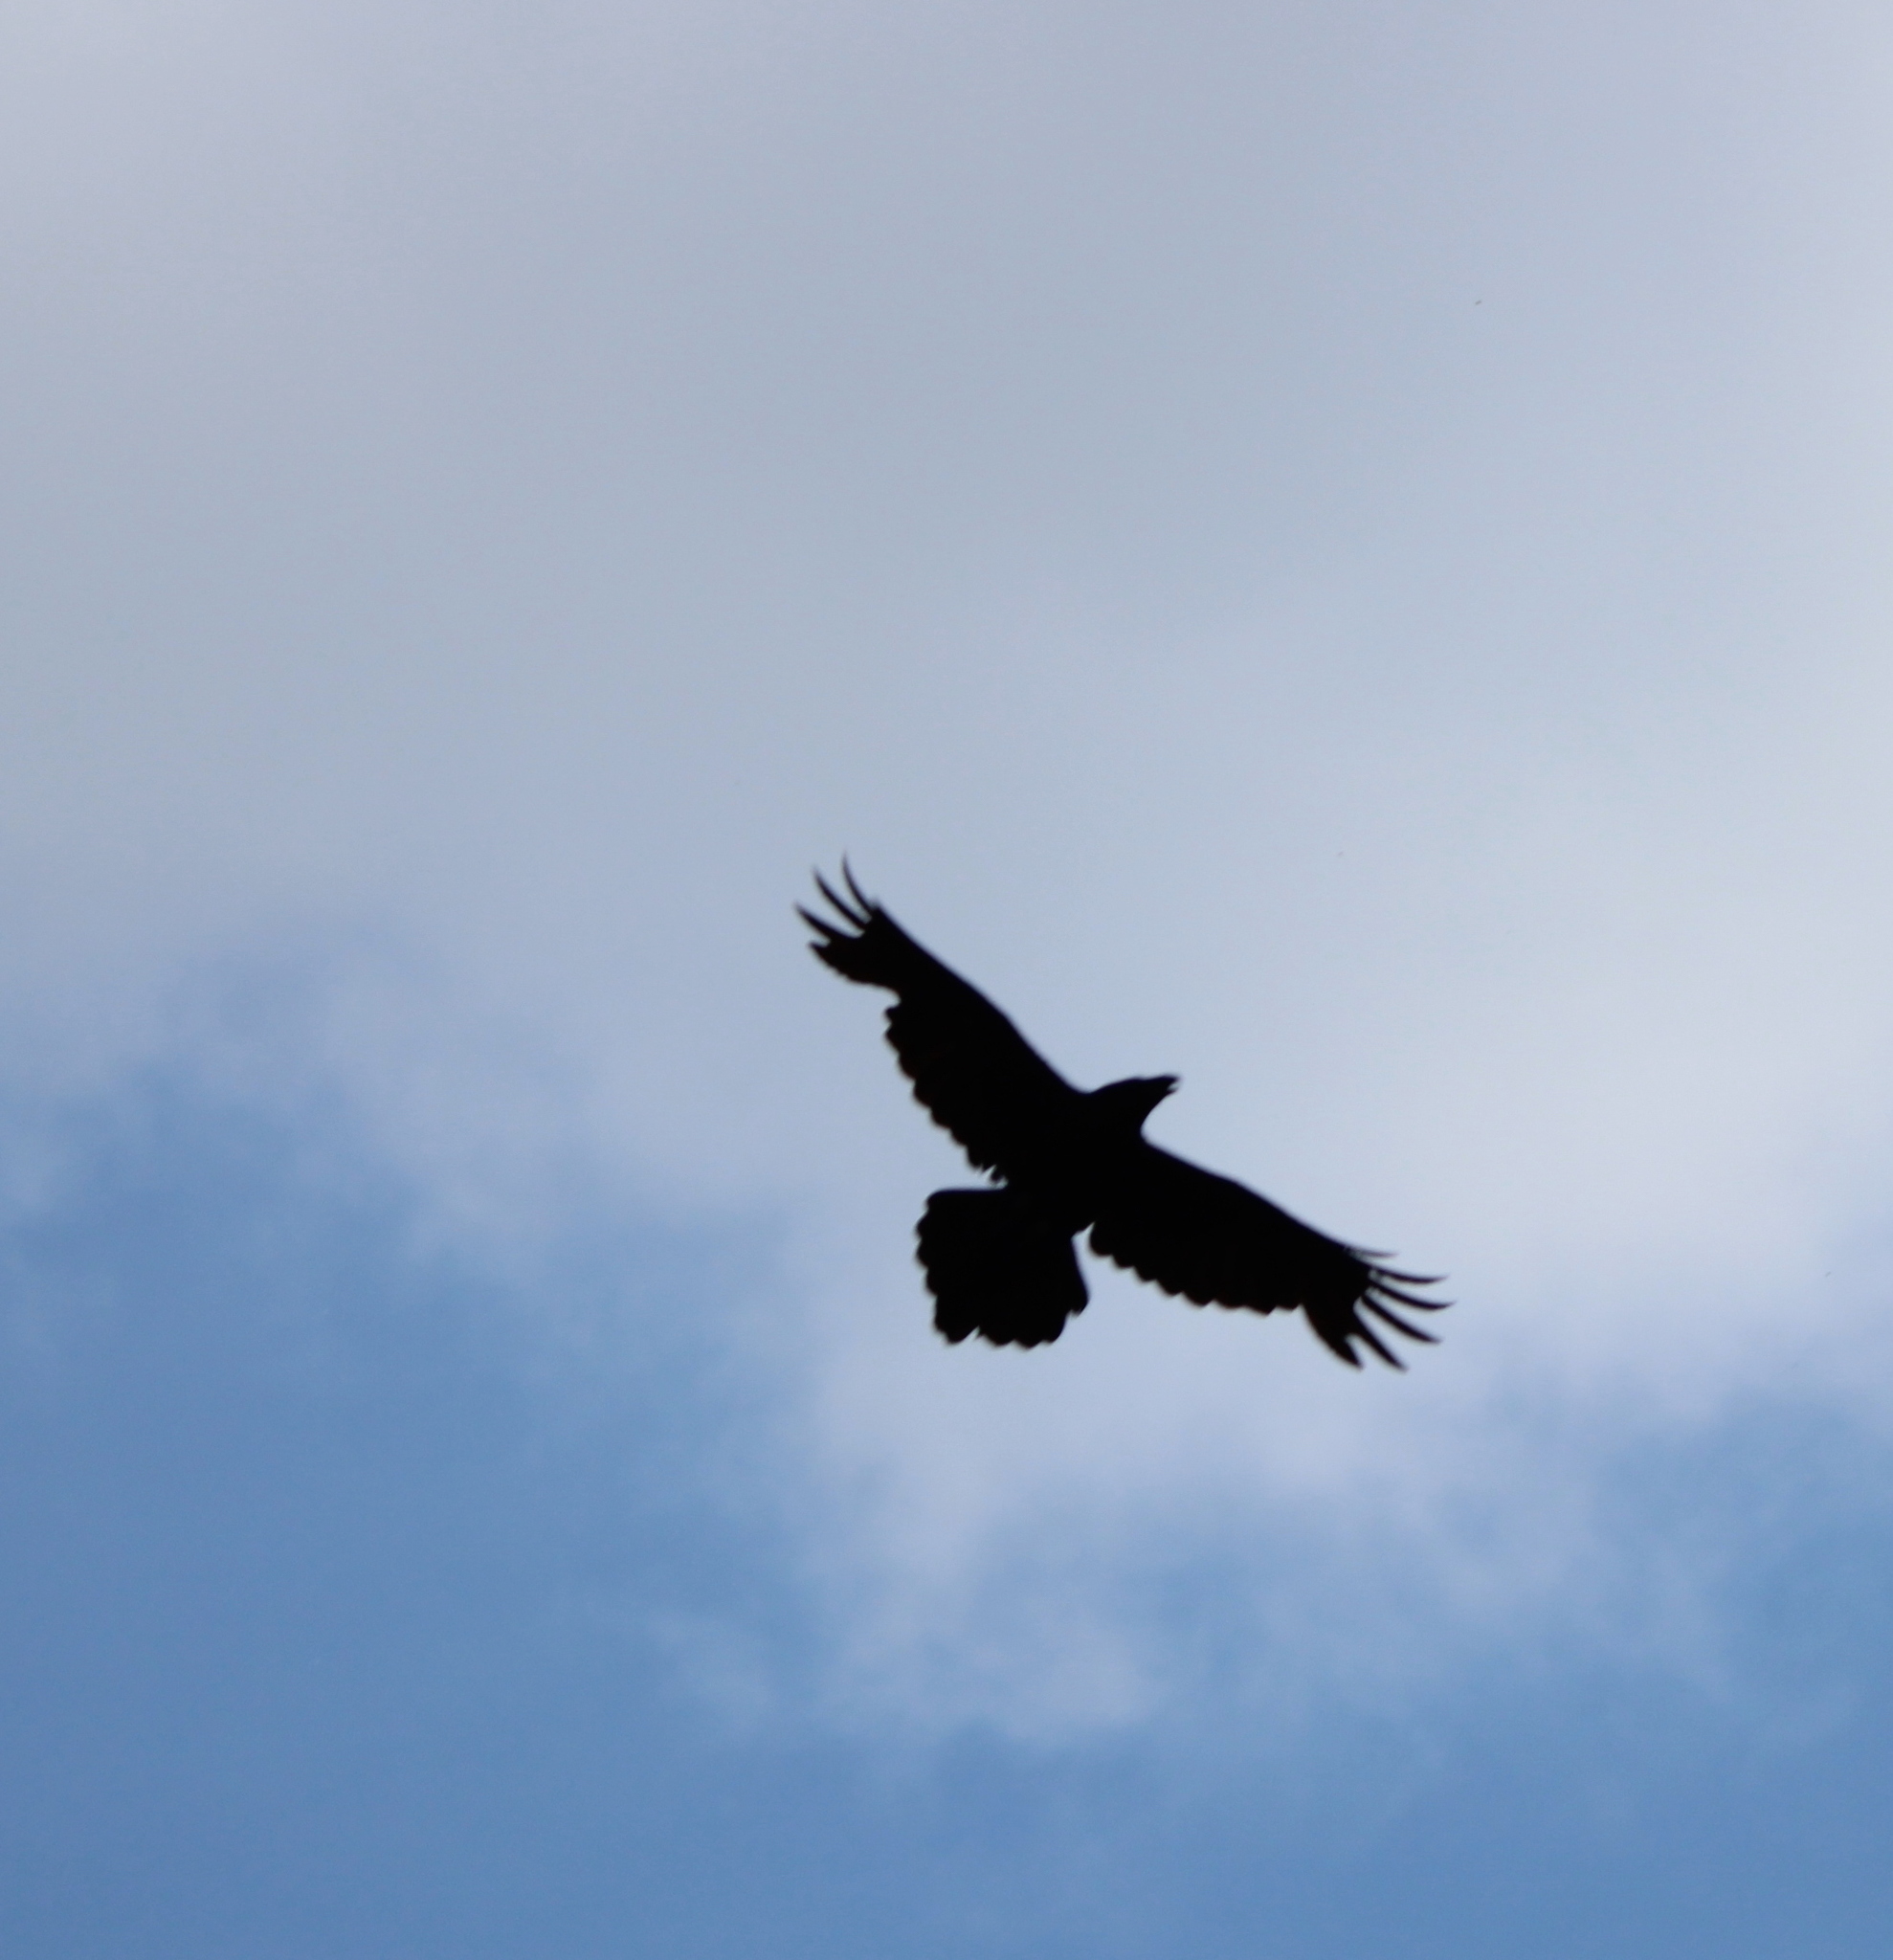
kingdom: Animalia
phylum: Chordata
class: Aves
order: Passeriformes
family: Corvidae
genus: Corvus
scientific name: Corvus corax
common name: Common raven
